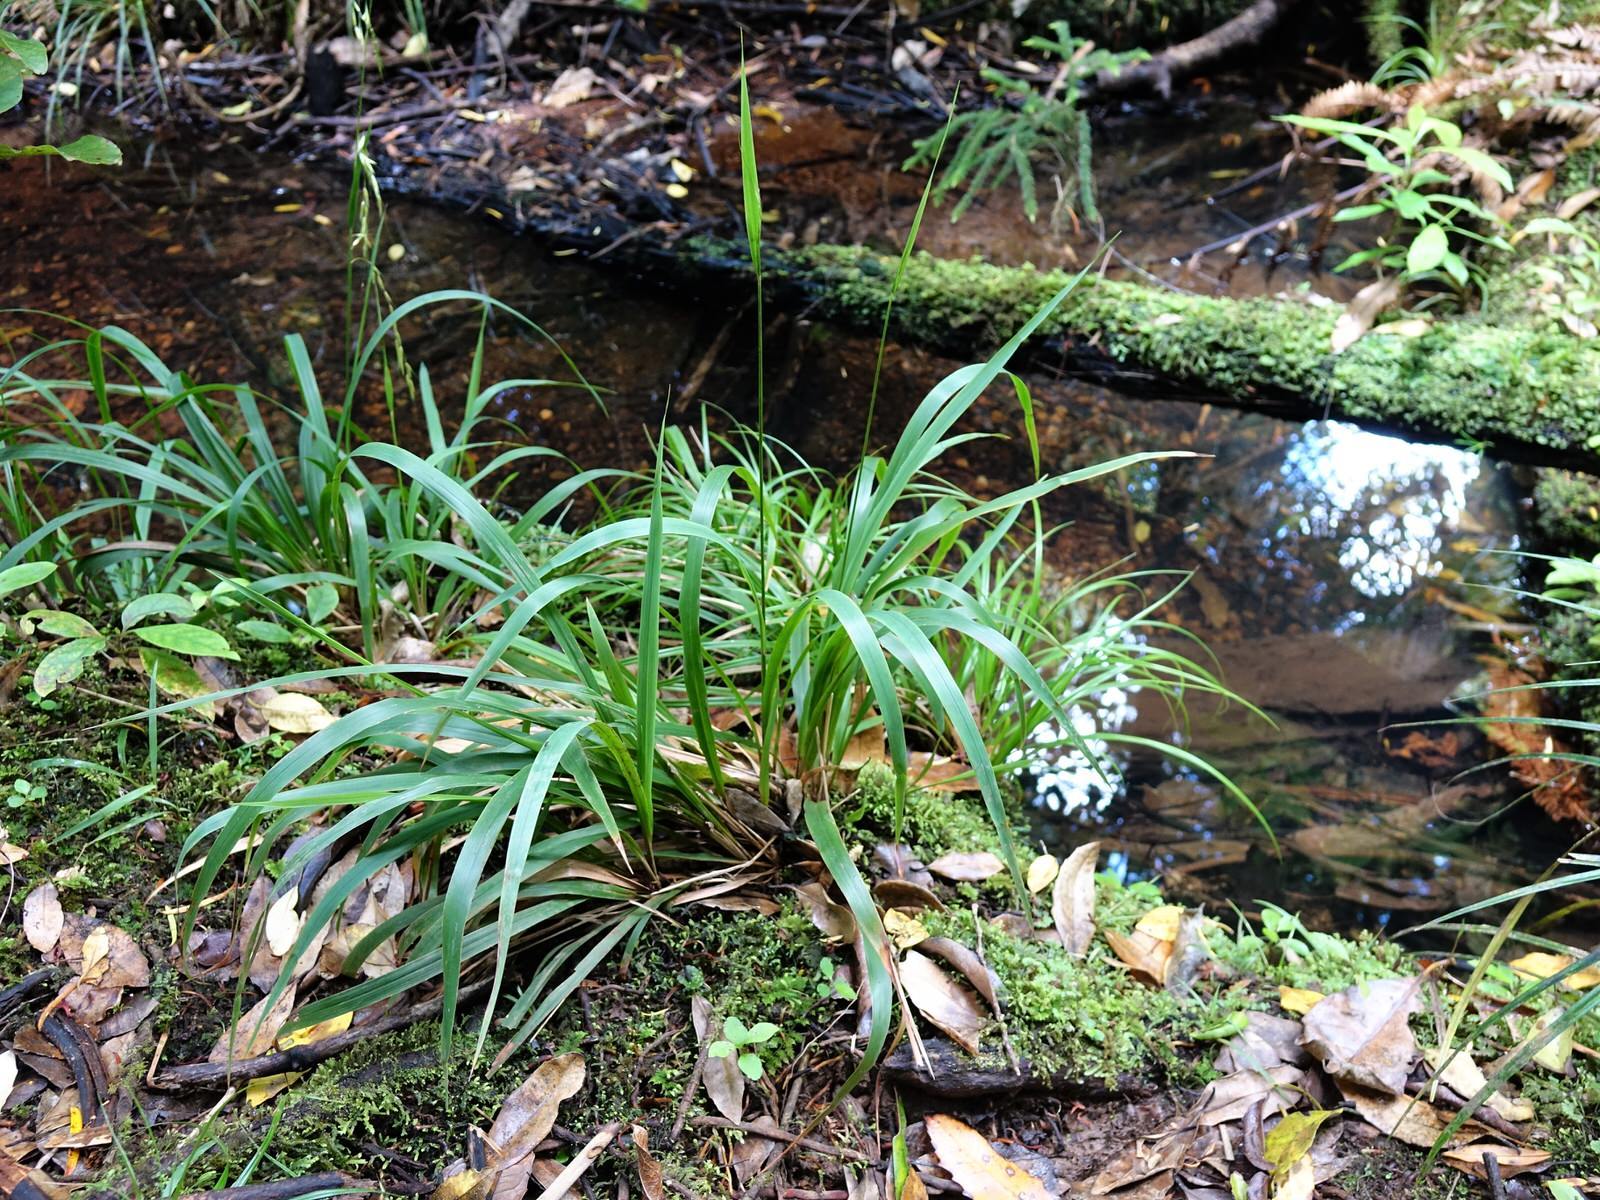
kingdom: Plantae
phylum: Tracheophyta
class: Liliopsida
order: Poales
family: Poaceae
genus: Ehrharta
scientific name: Ehrharta diplax
